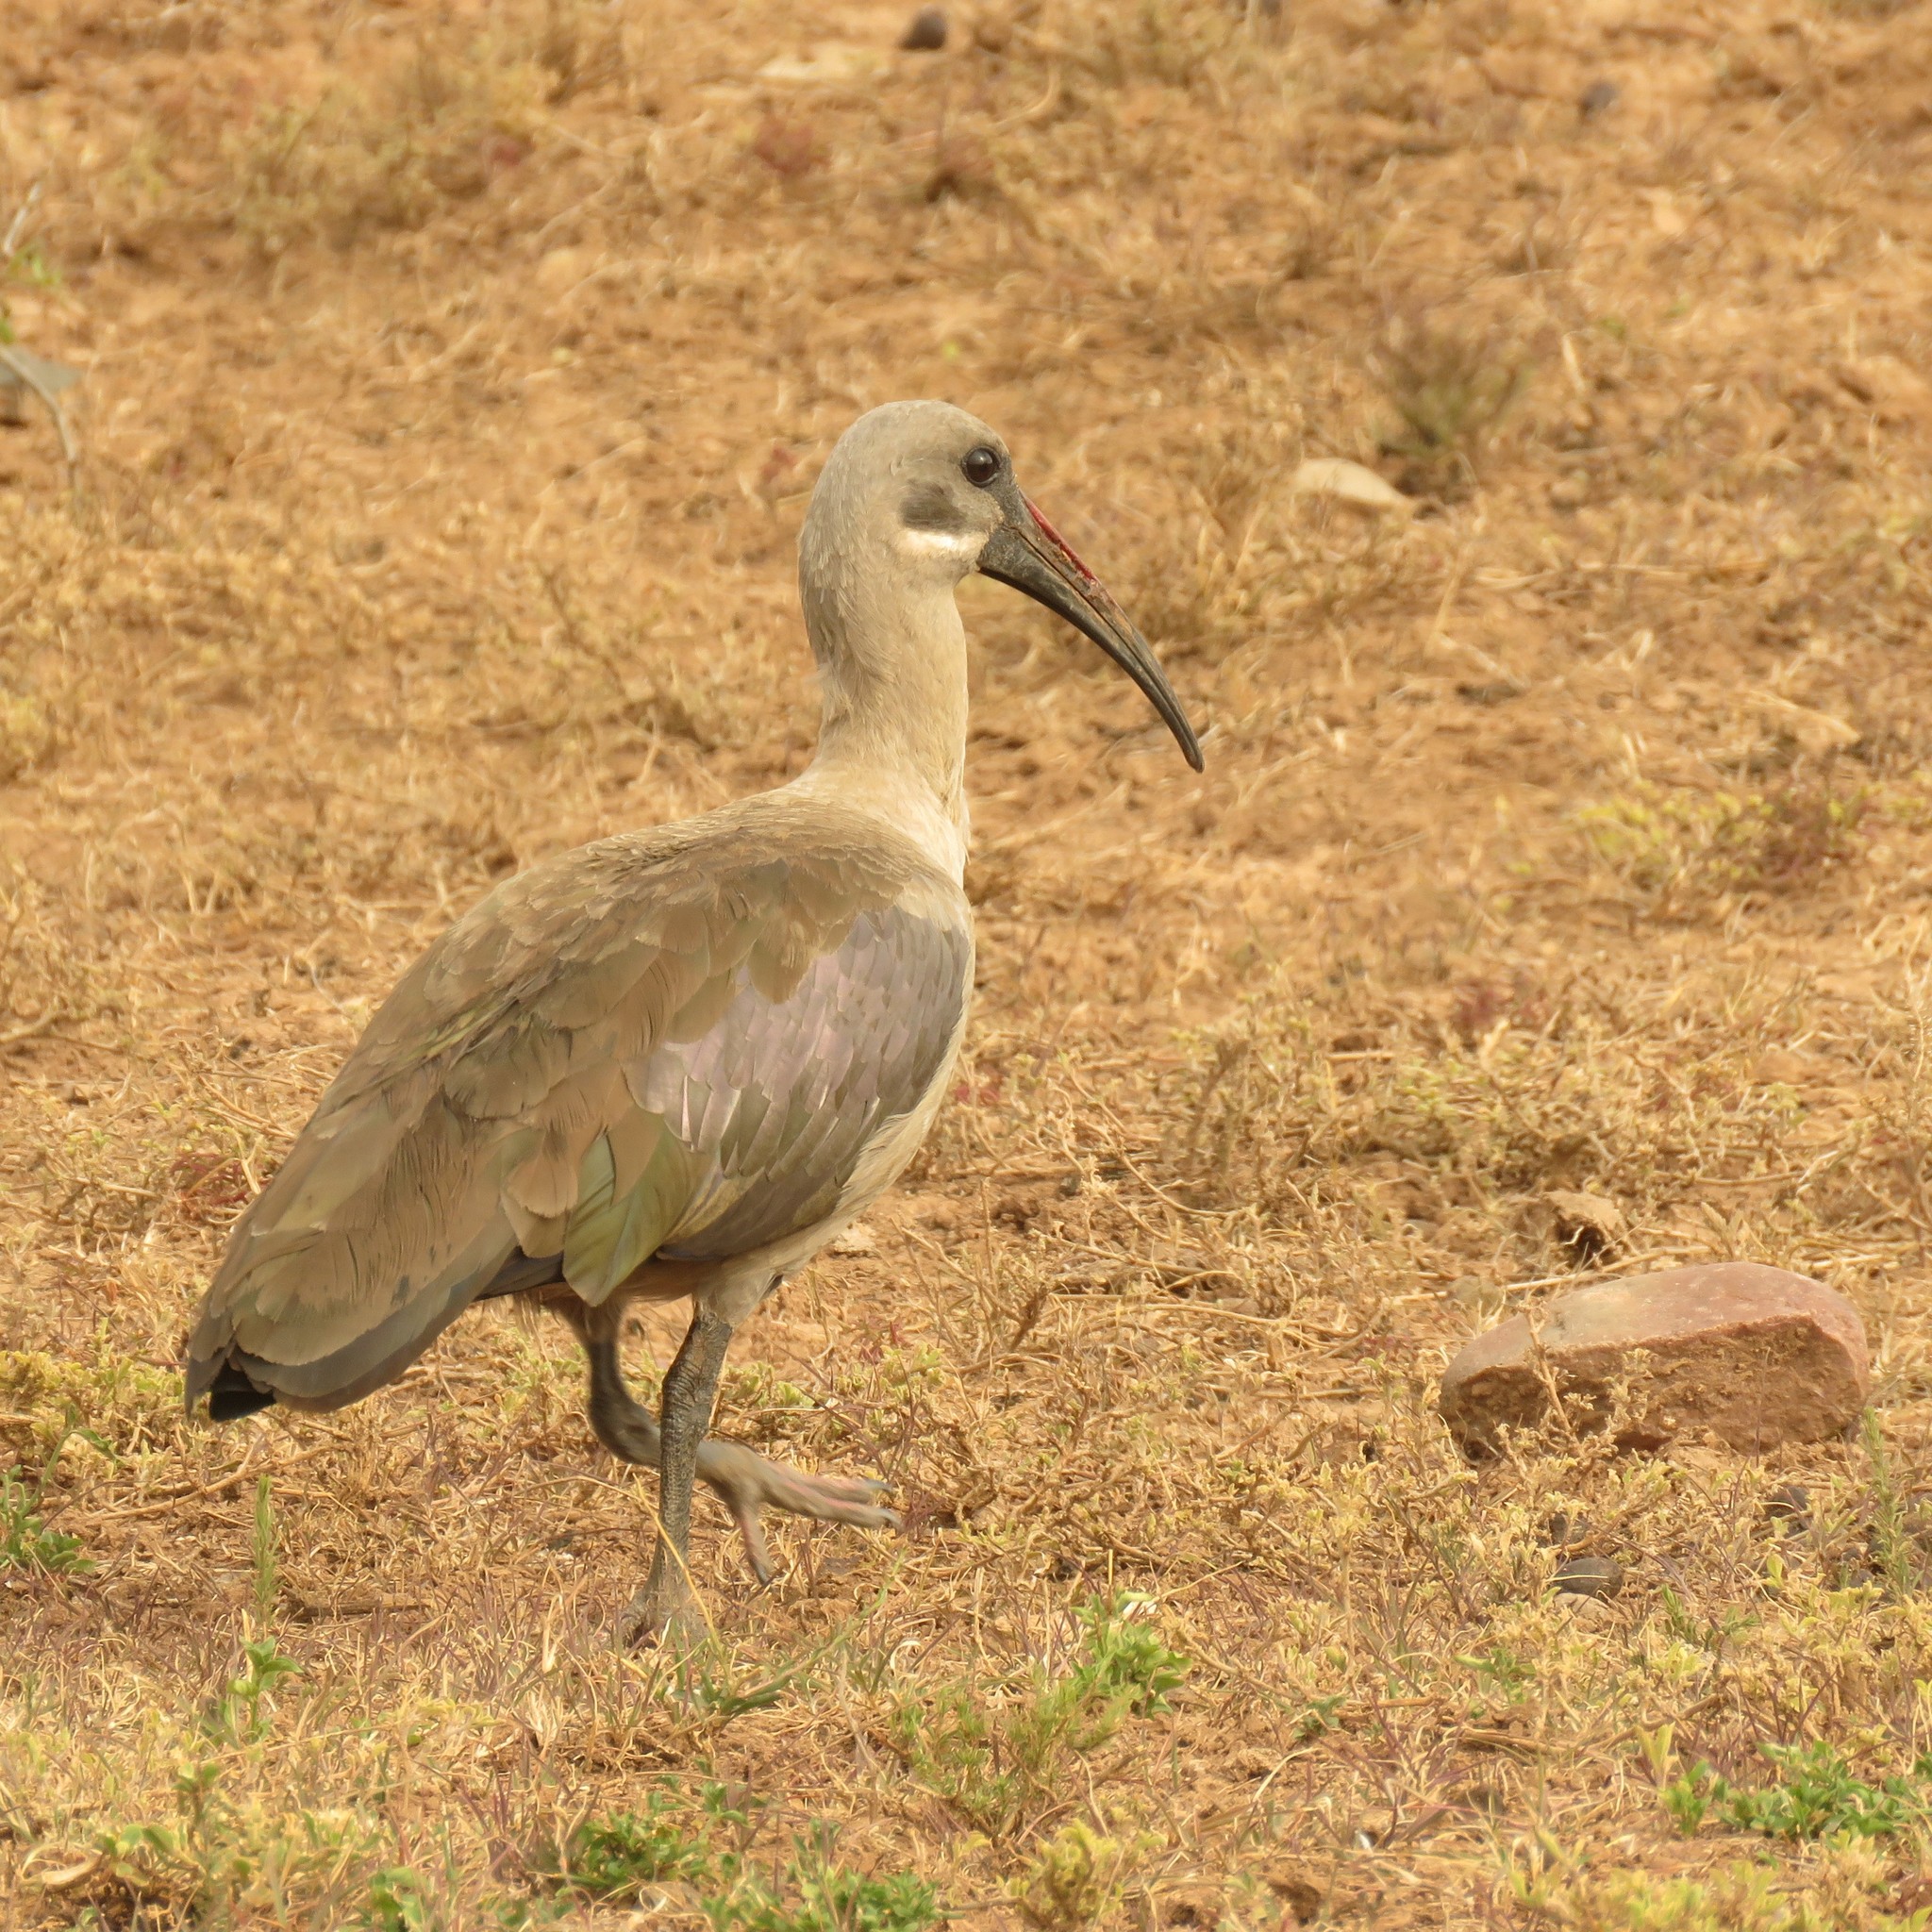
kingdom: Animalia
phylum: Chordata
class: Aves
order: Pelecaniformes
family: Threskiornithidae
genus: Bostrychia
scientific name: Bostrychia hagedash
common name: Hadada ibis
